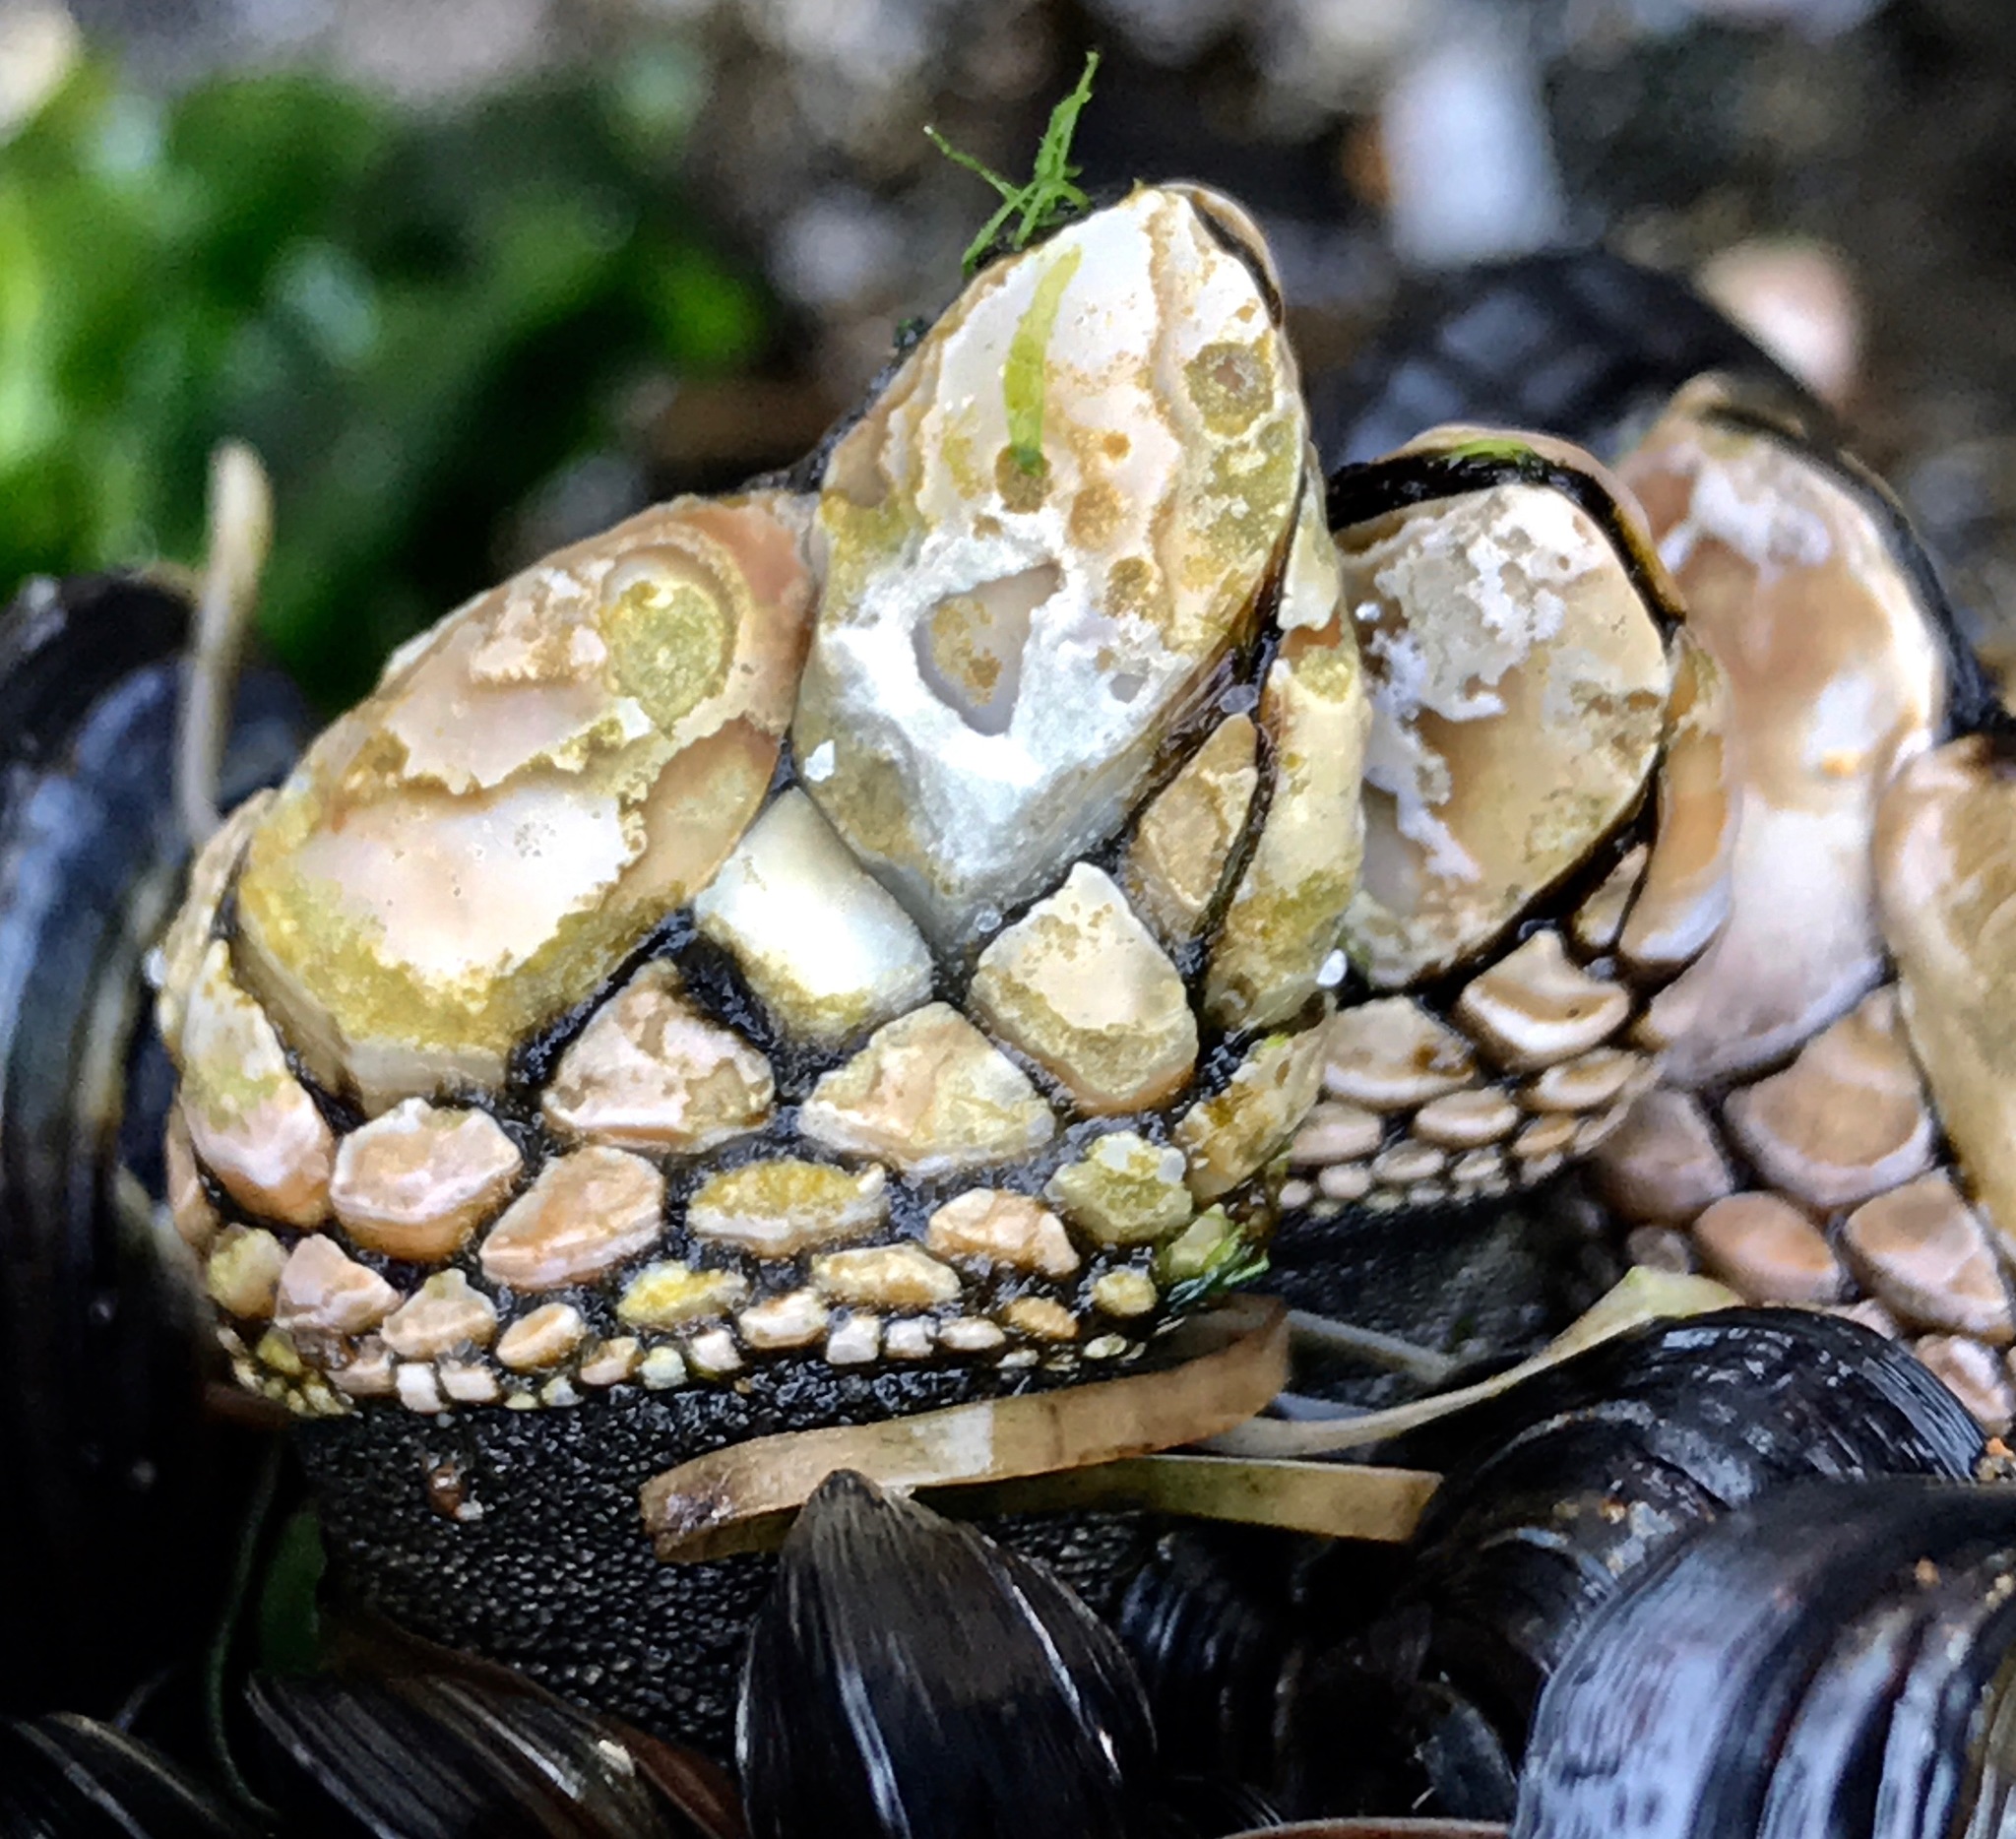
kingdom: Animalia
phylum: Arthropoda
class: Maxillopoda
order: Pedunculata
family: Pollicipedidae
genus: Pollicipes
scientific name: Pollicipes polymerus
